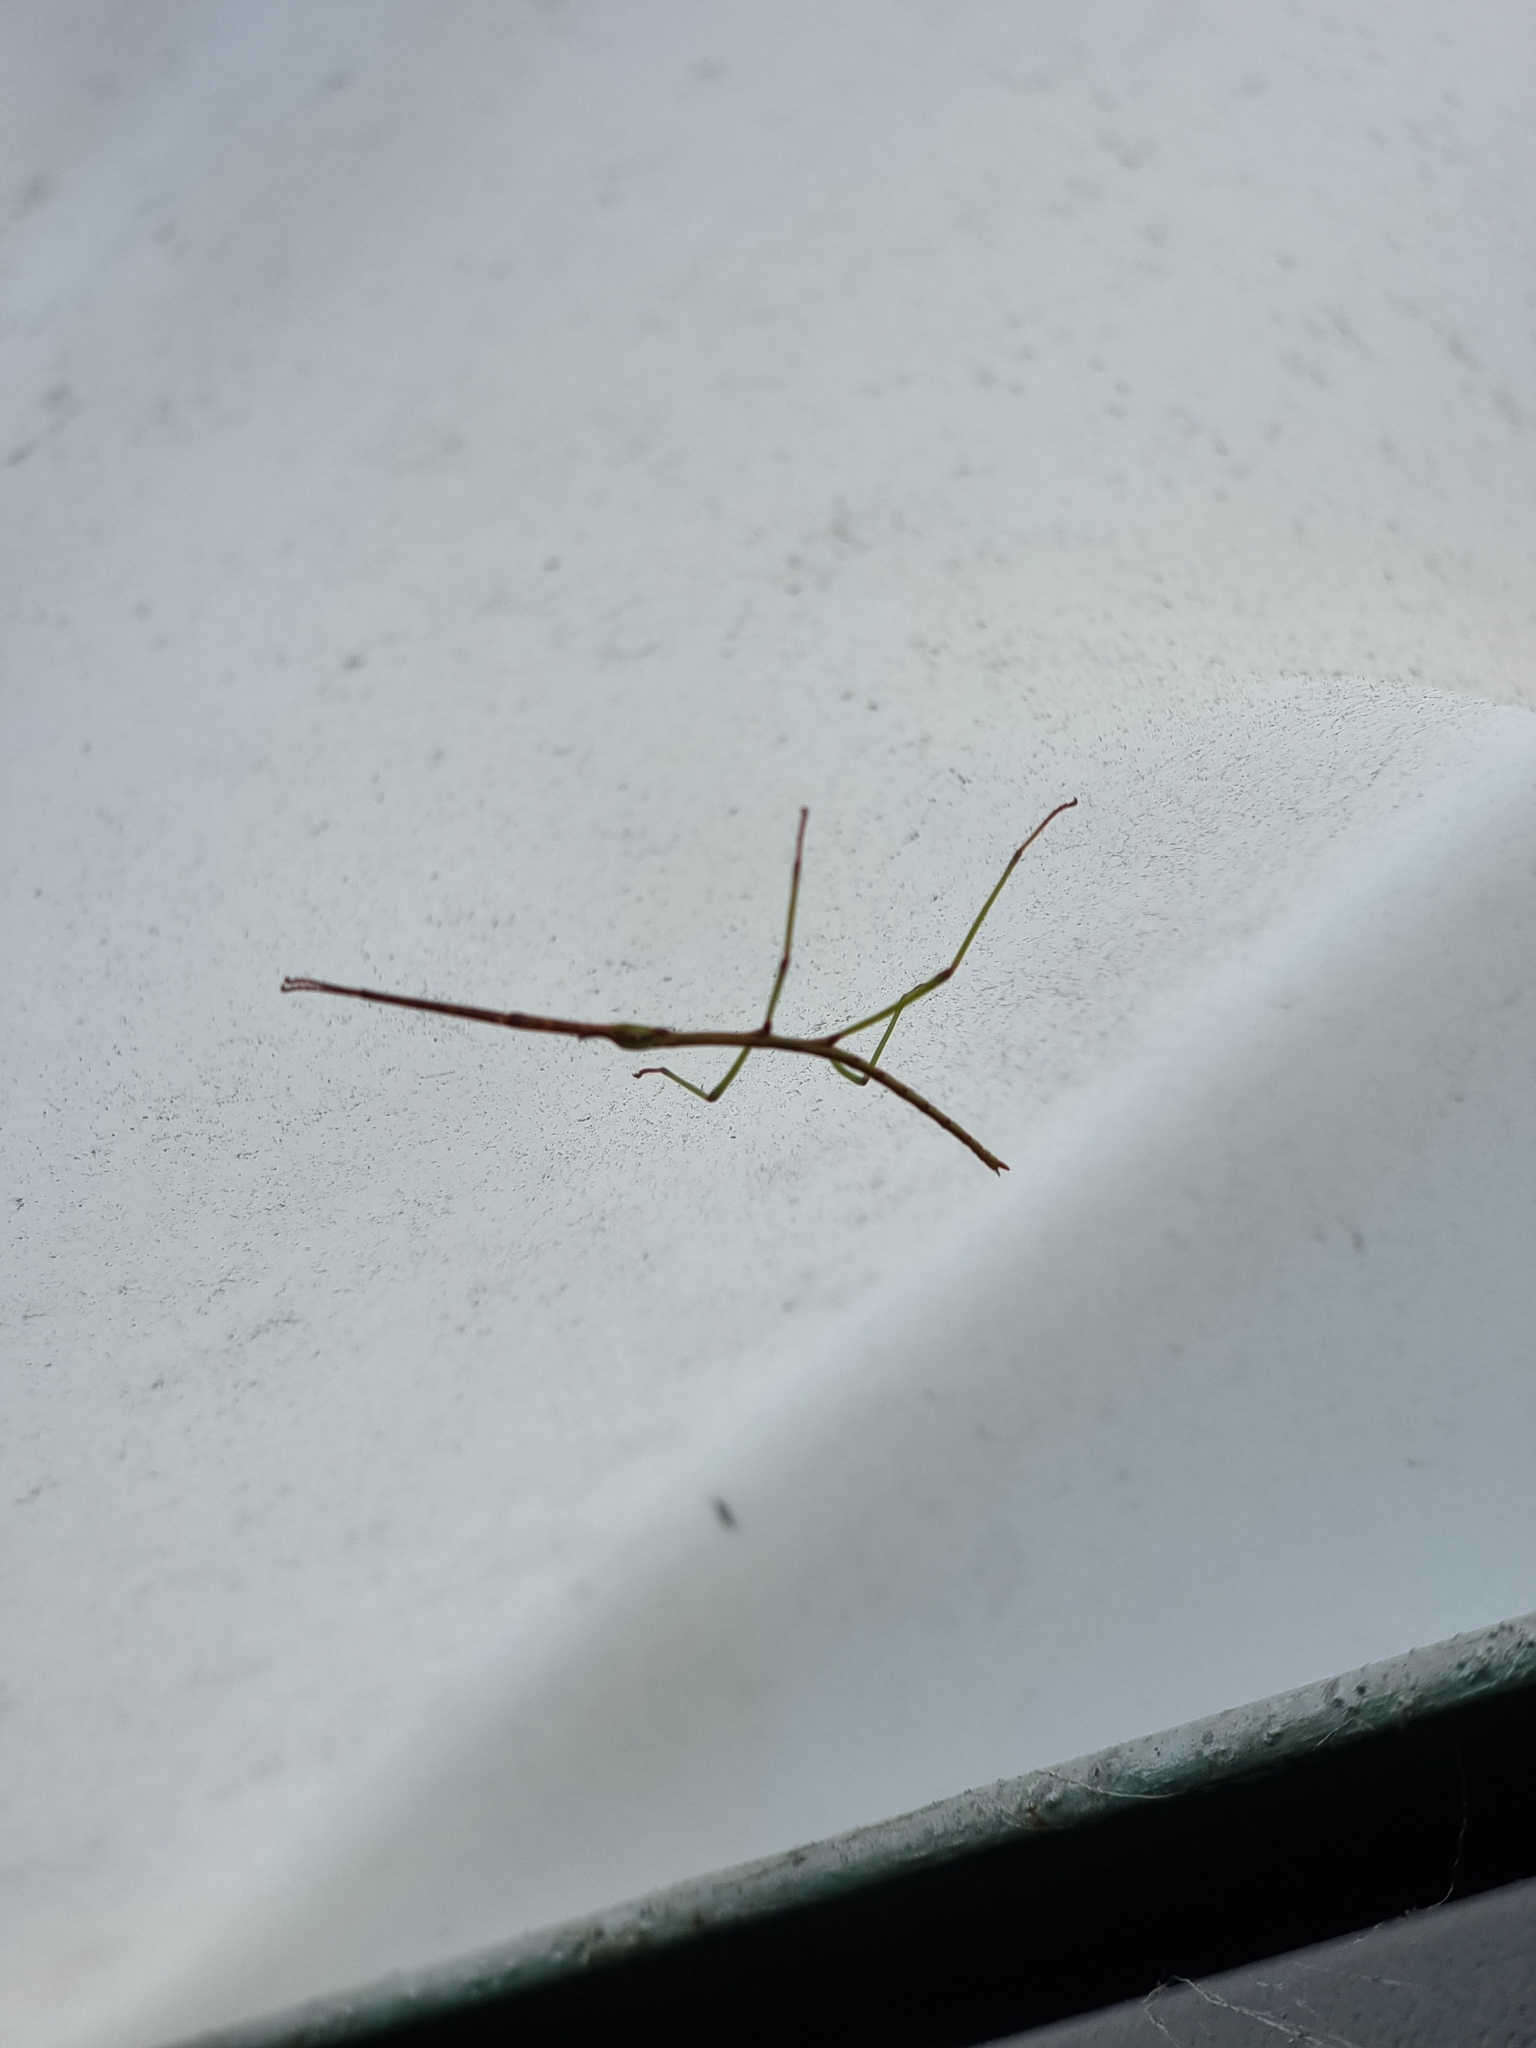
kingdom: Animalia
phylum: Arthropoda
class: Insecta
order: Phasmida
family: Phasmatidae
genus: Ctenomorpha
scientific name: Ctenomorpha marginipennis
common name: Margined-winged stick-insect
